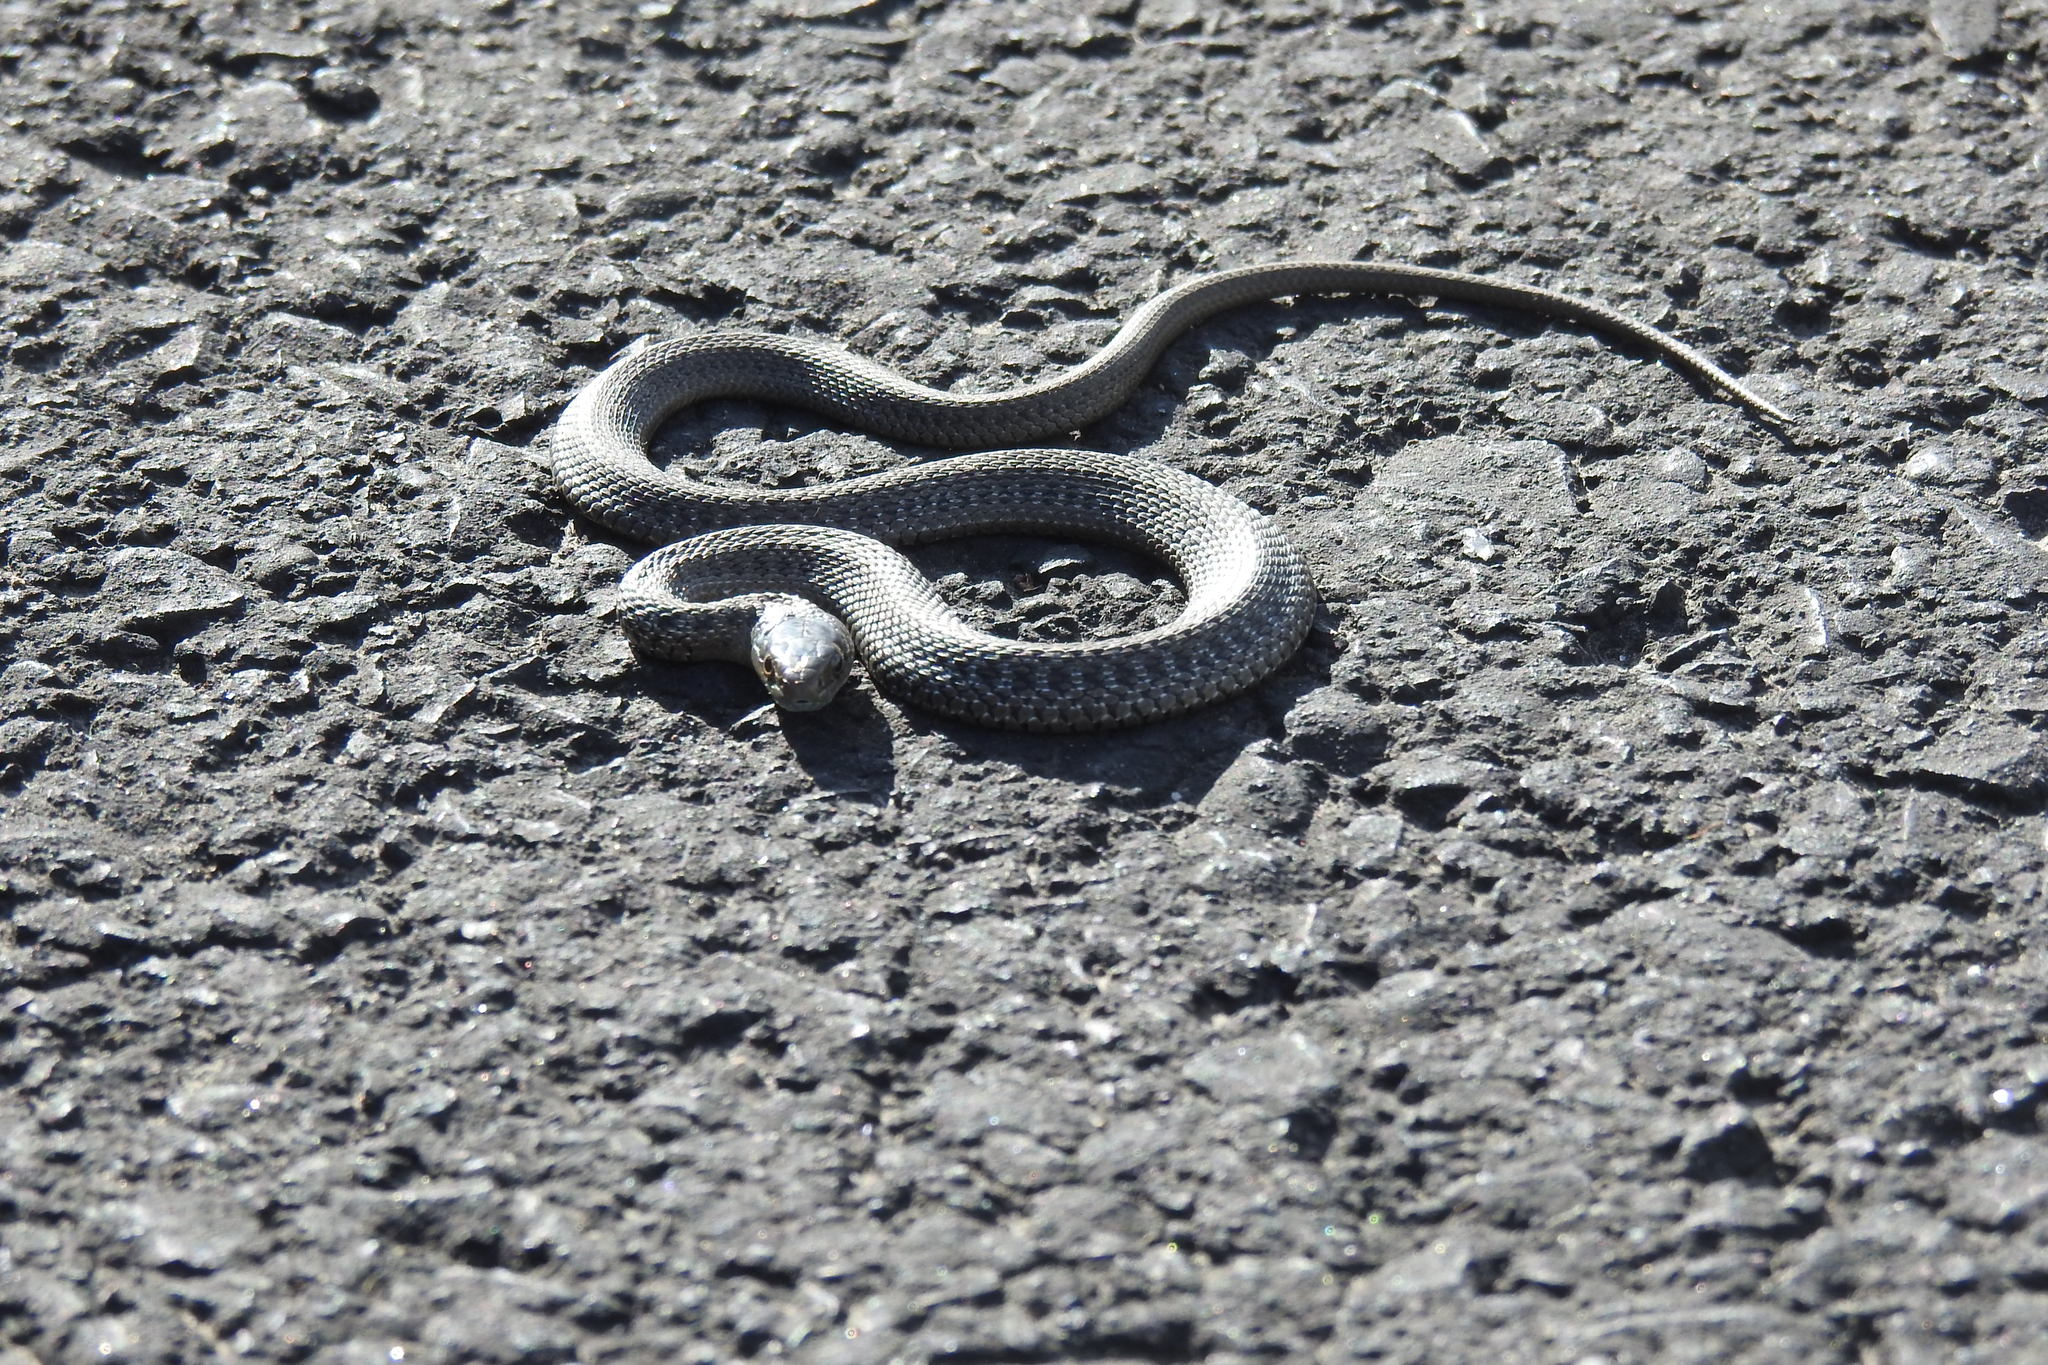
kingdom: Animalia
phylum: Chordata
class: Squamata
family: Colubridae
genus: Thamnophis
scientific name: Thamnophis elegans
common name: Western terrestrial garter snake
